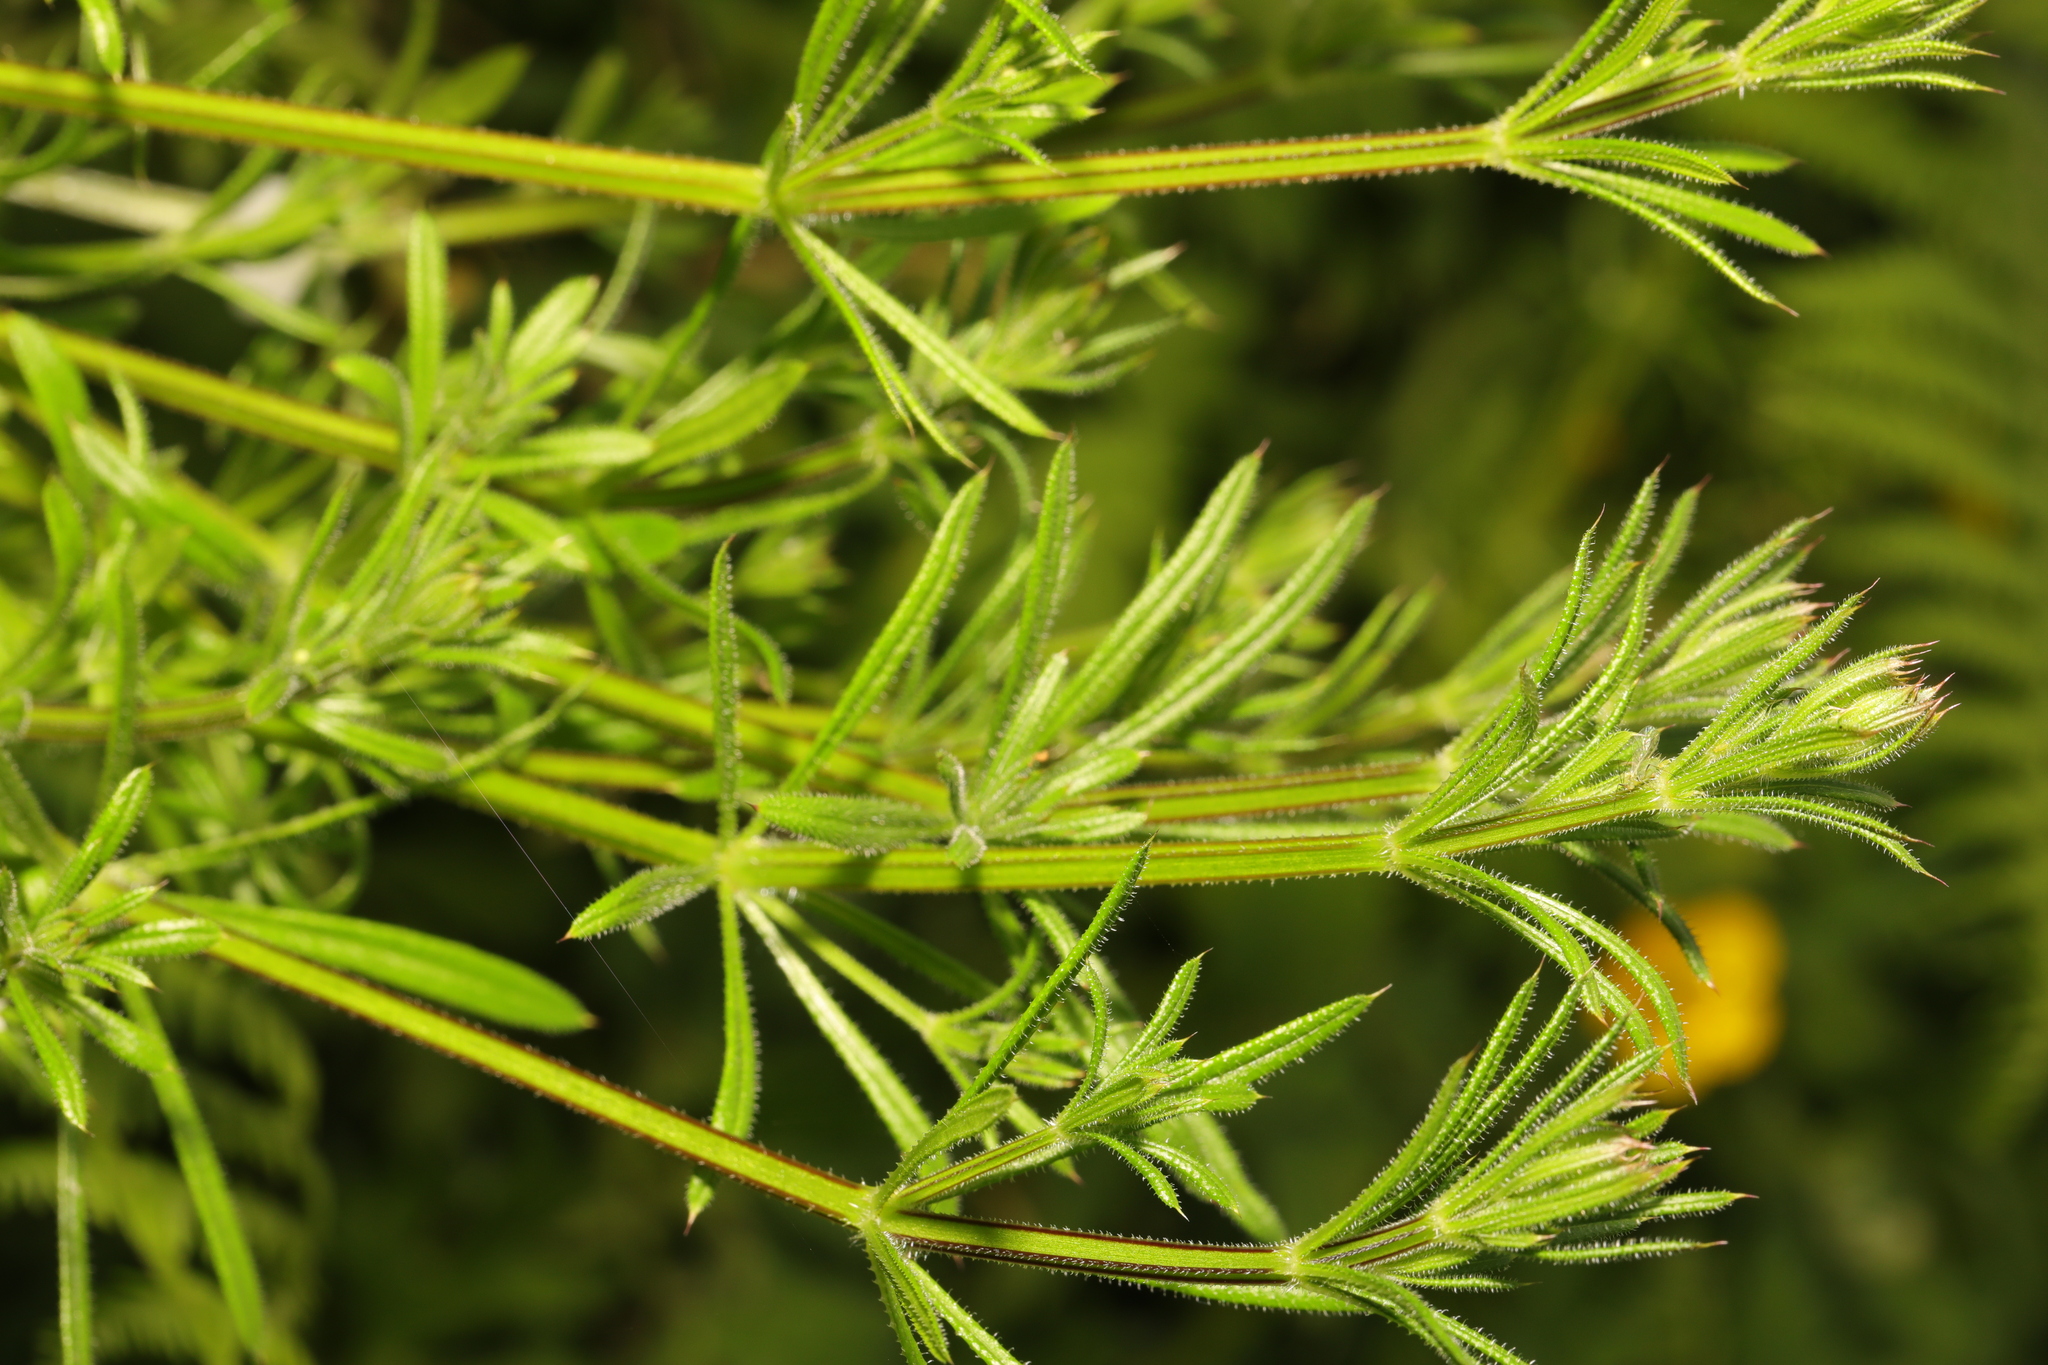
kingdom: Plantae
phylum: Tracheophyta
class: Magnoliopsida
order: Gentianales
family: Rubiaceae
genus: Galium
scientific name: Galium aparine
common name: Cleavers
